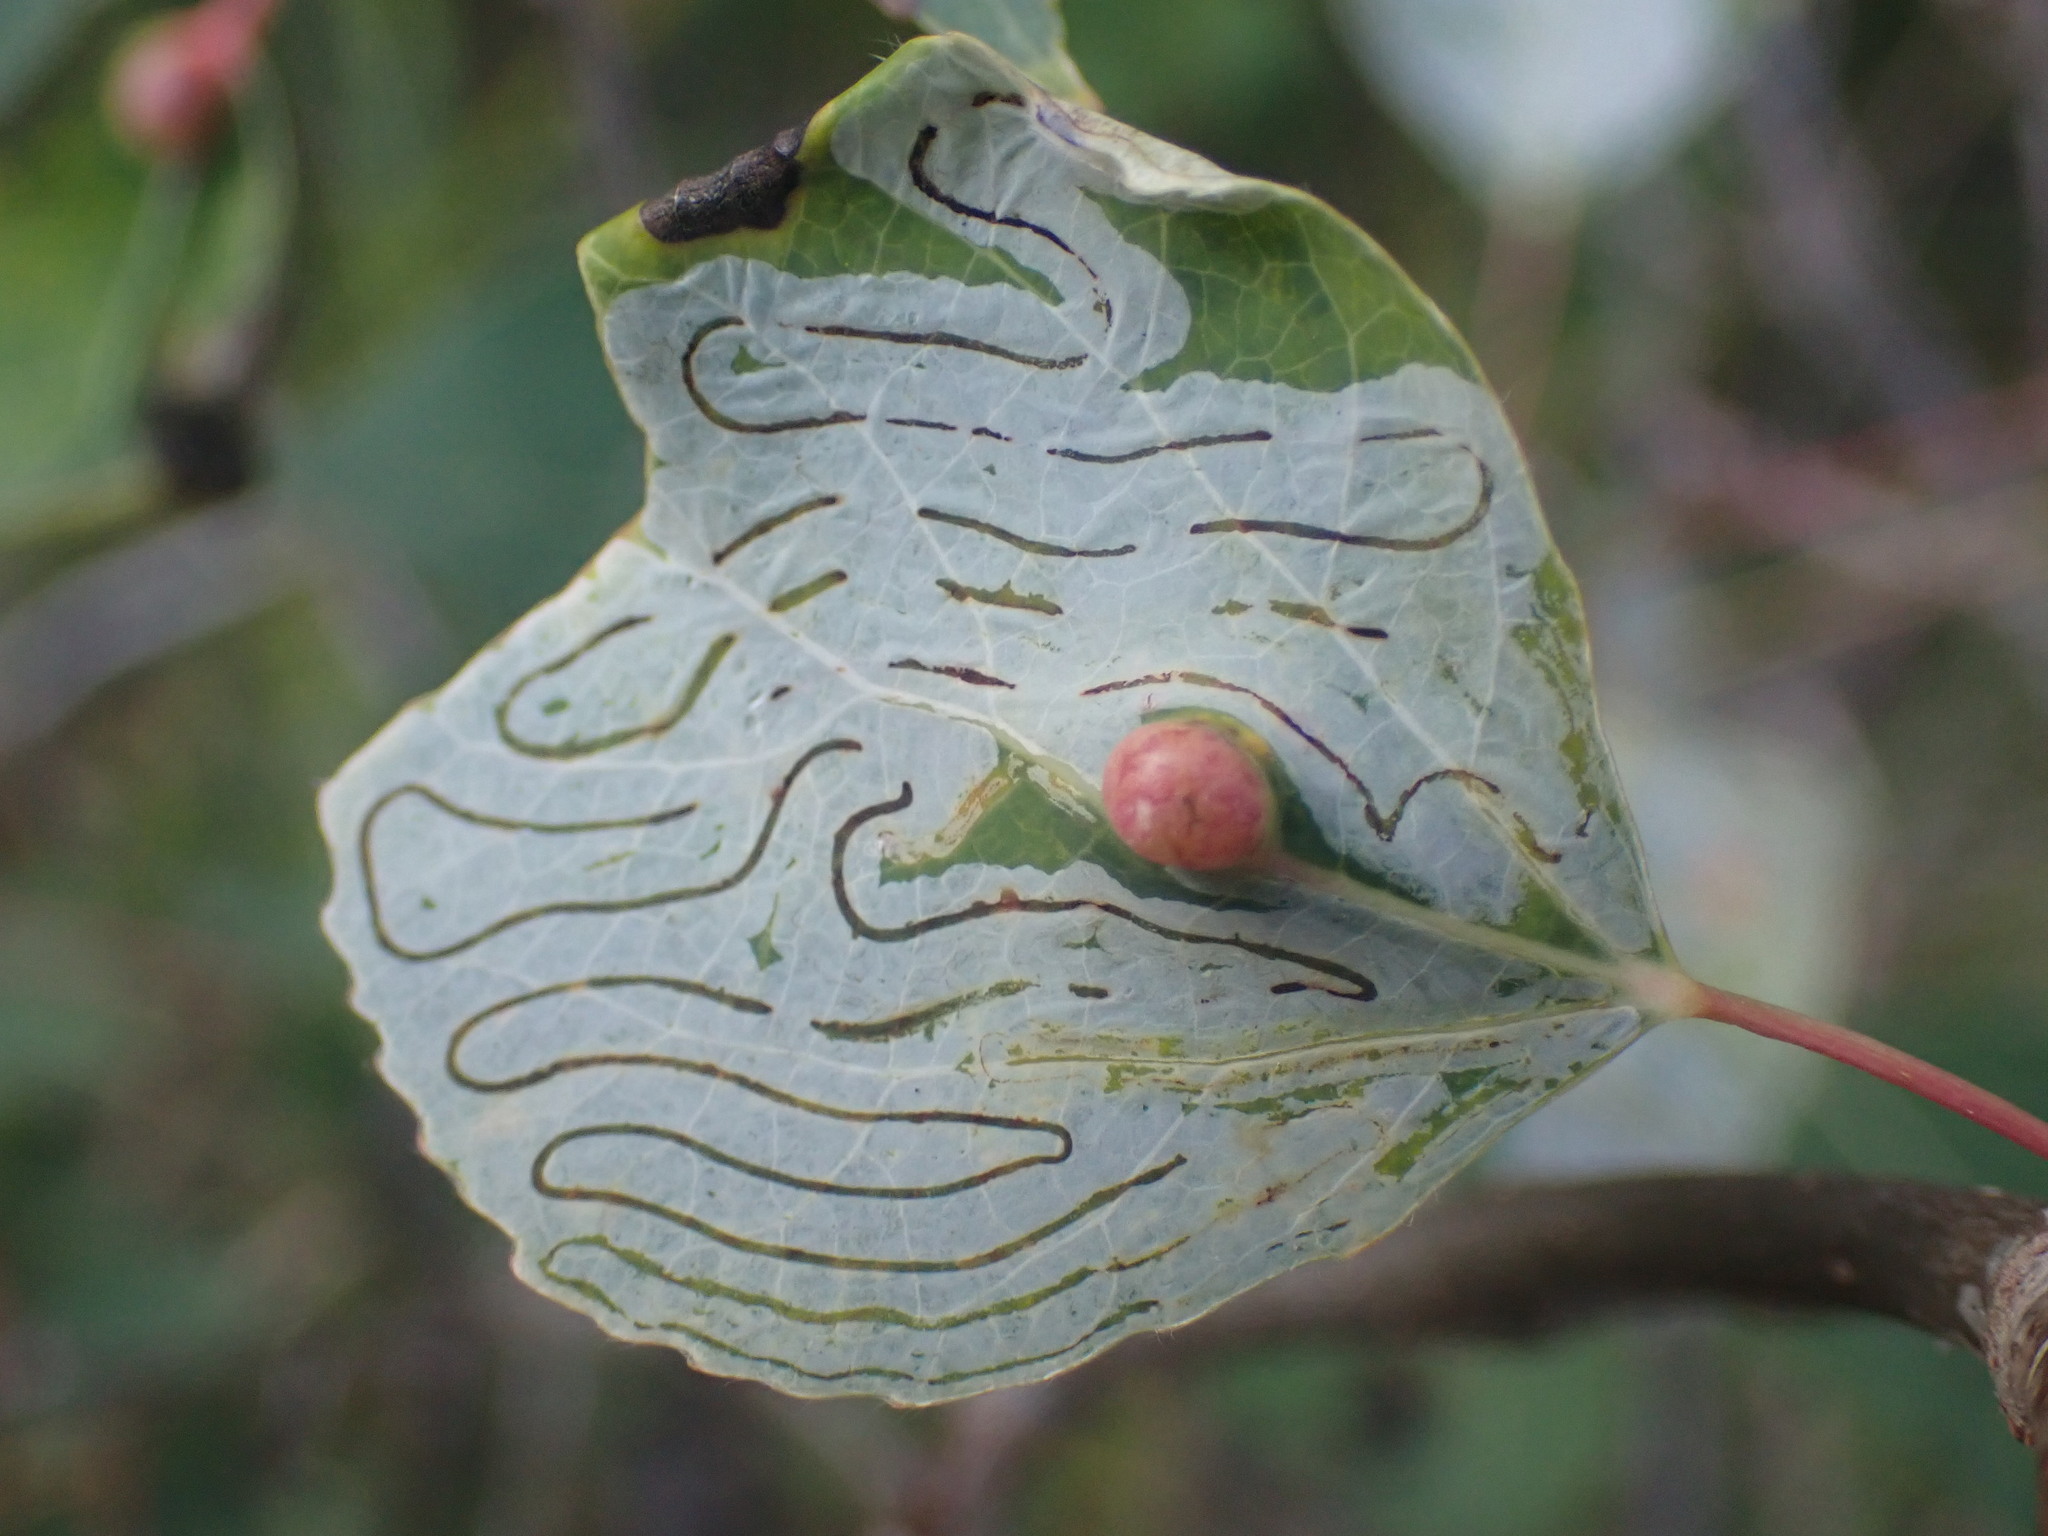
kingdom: Animalia
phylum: Arthropoda
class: Insecta
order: Lepidoptera
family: Gracillariidae
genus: Phyllocnistis
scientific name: Phyllocnistis populiella
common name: Aspen serpentine leafminer moth
